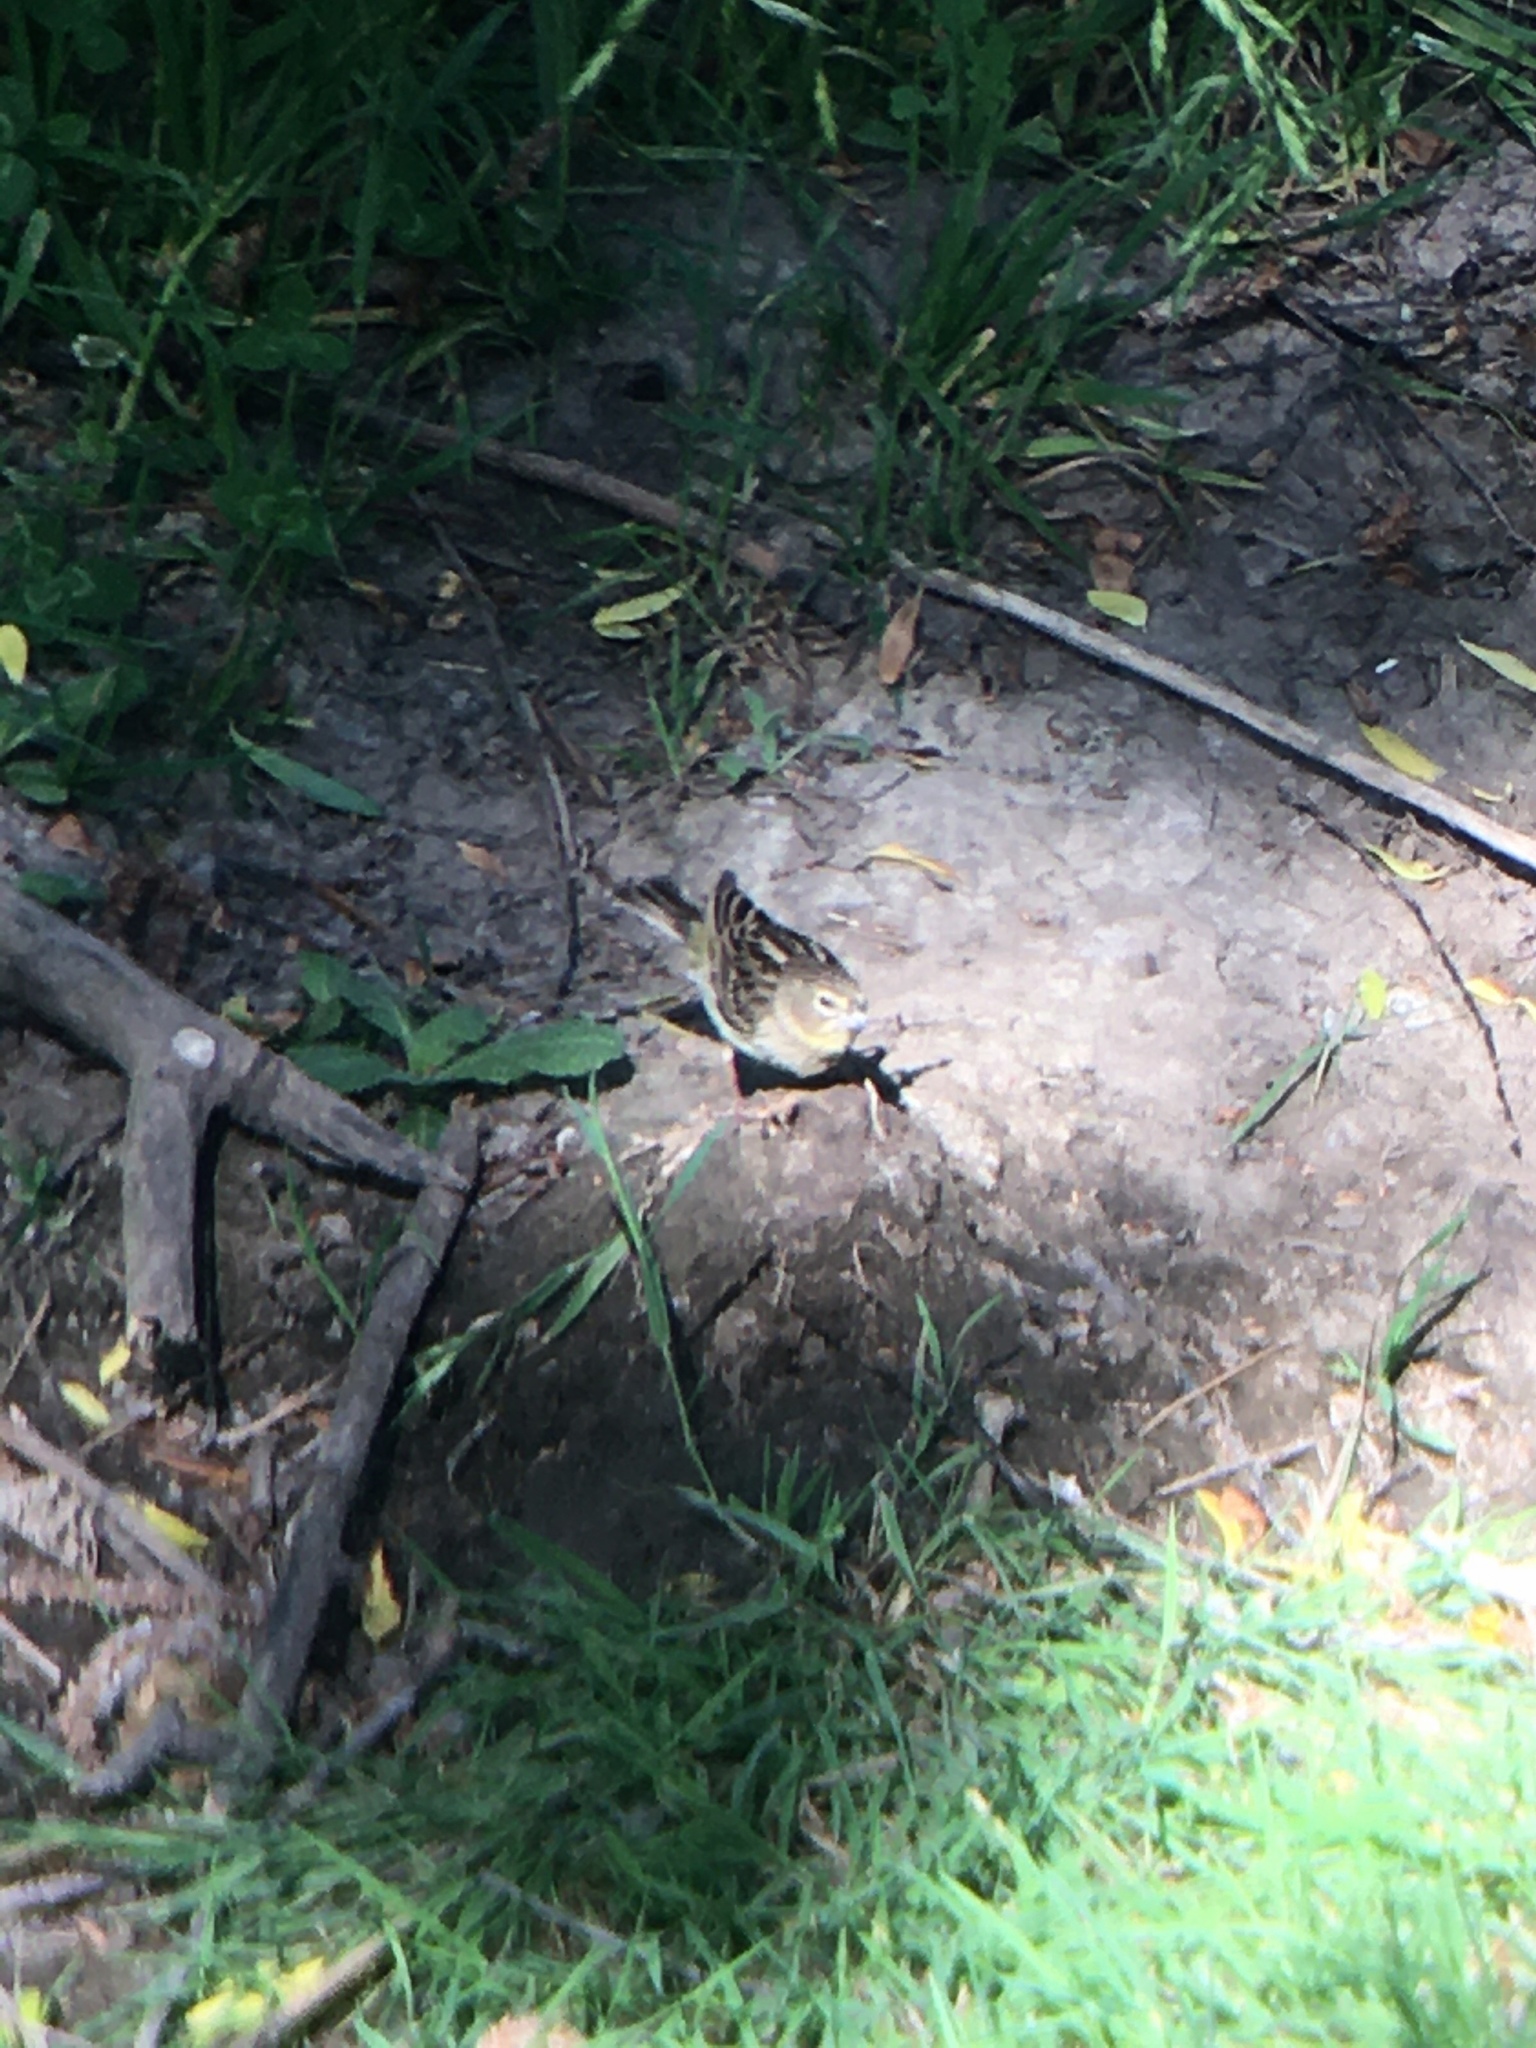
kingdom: Animalia
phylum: Chordata
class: Aves
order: Passeriformes
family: Thraupidae
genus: Sicalis
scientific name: Sicalis luteola
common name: Grassland yellow-finch
